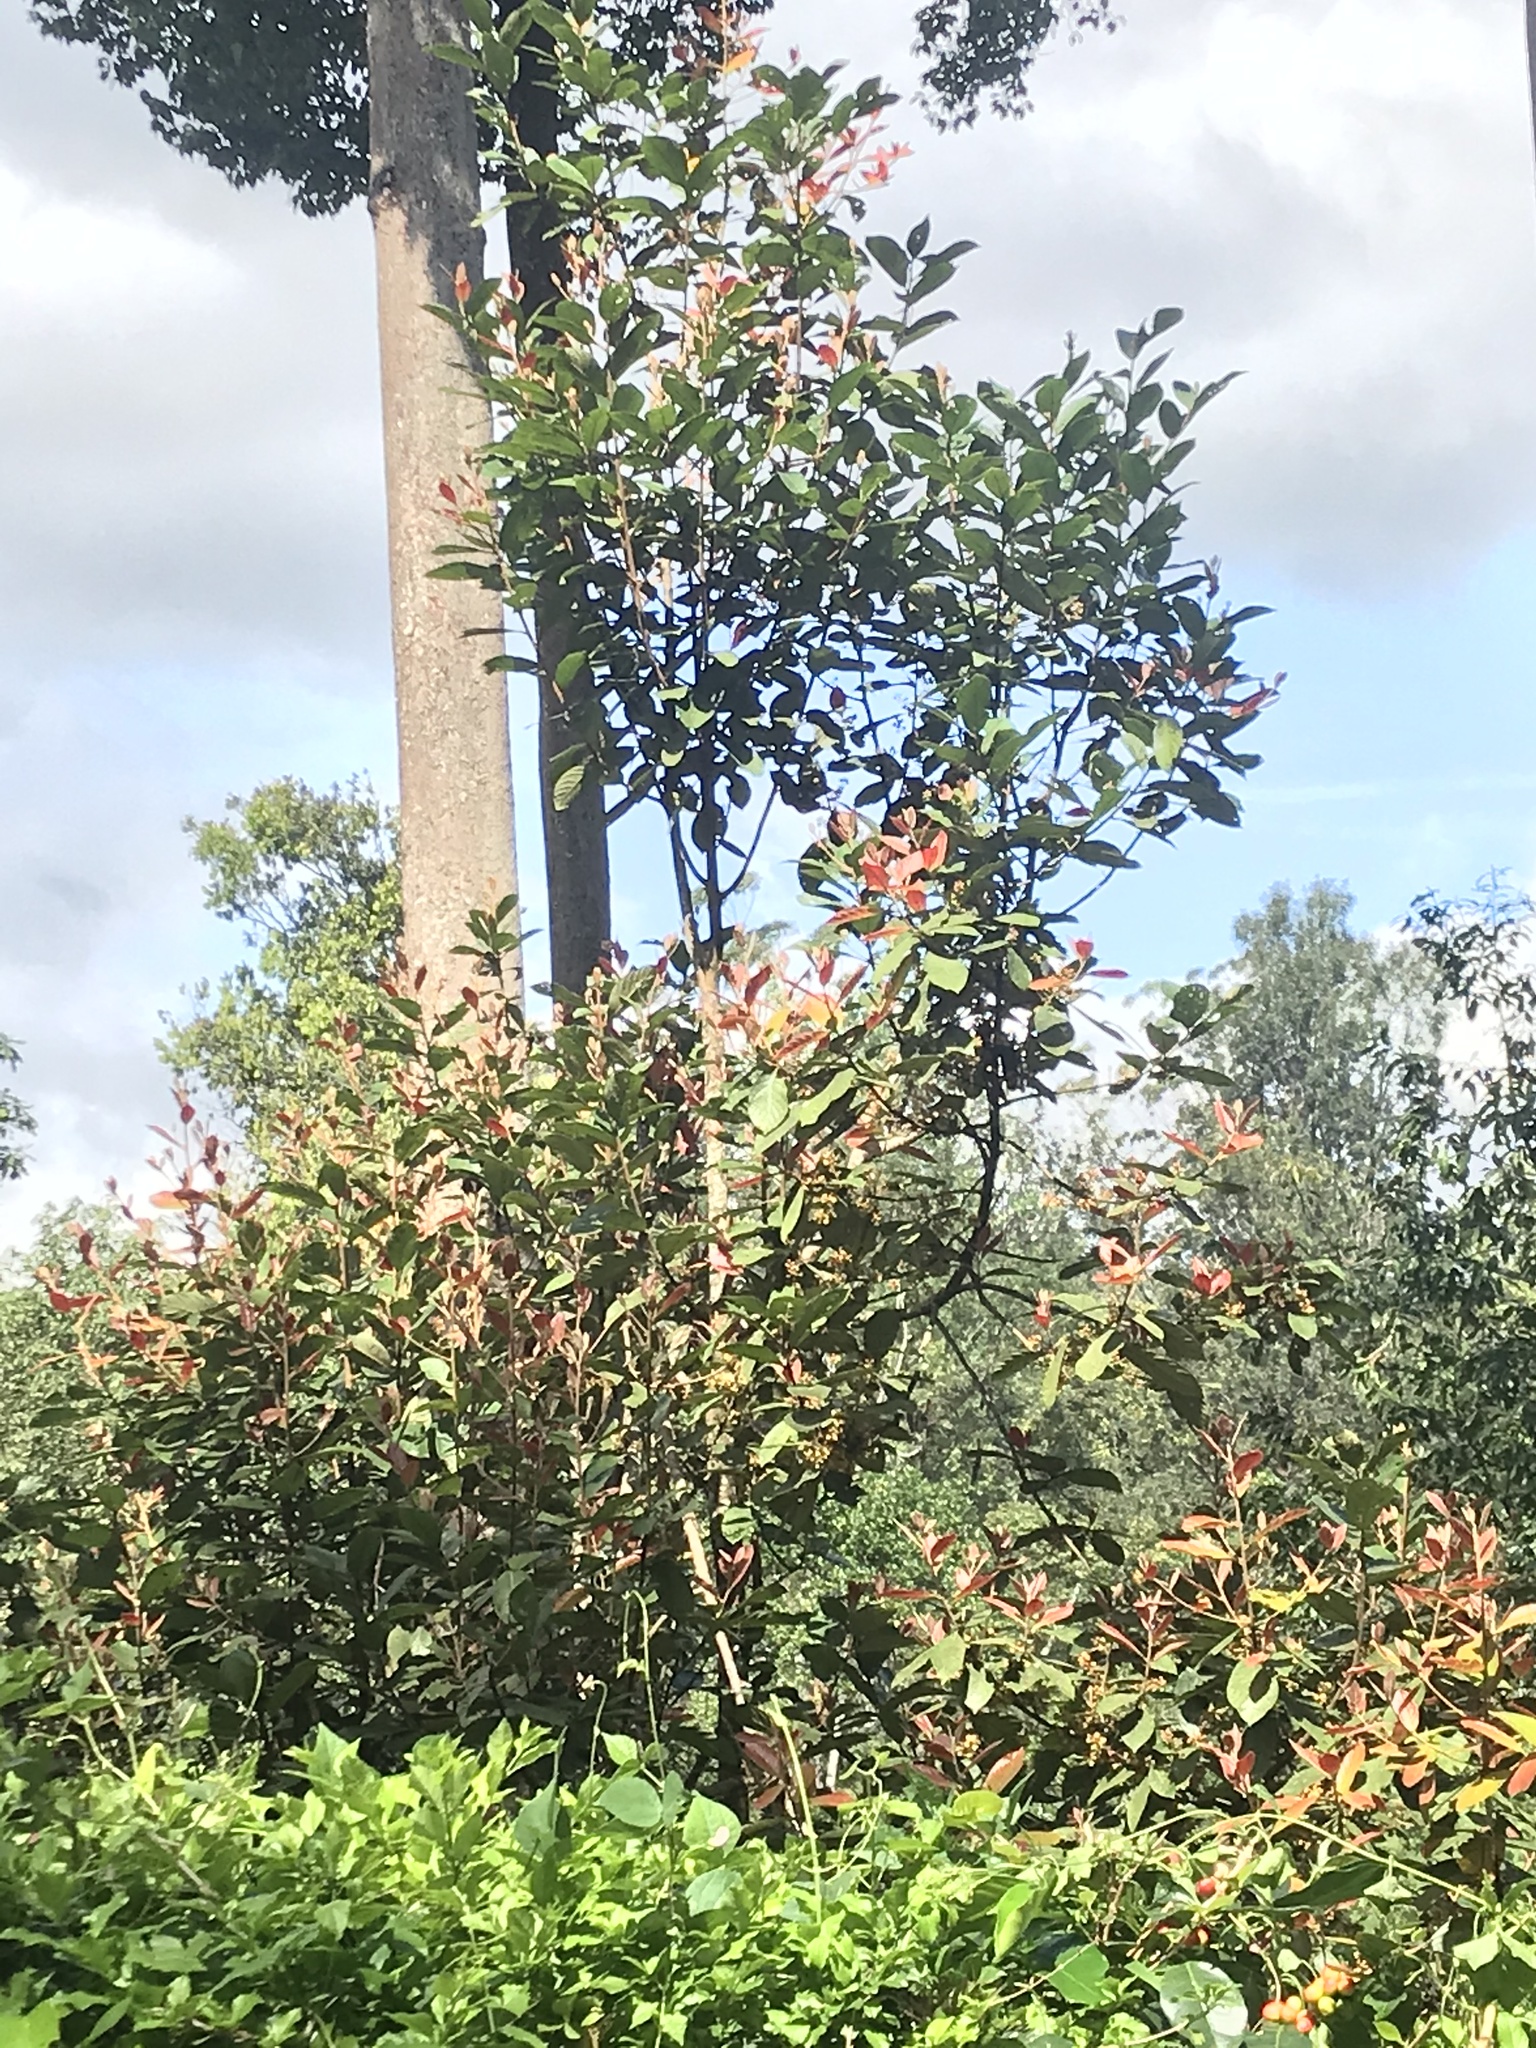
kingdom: Plantae
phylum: Tracheophyta
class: Magnoliopsida
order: Laurales
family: Lauraceae
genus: Litsea
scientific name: Litsea floribunda
